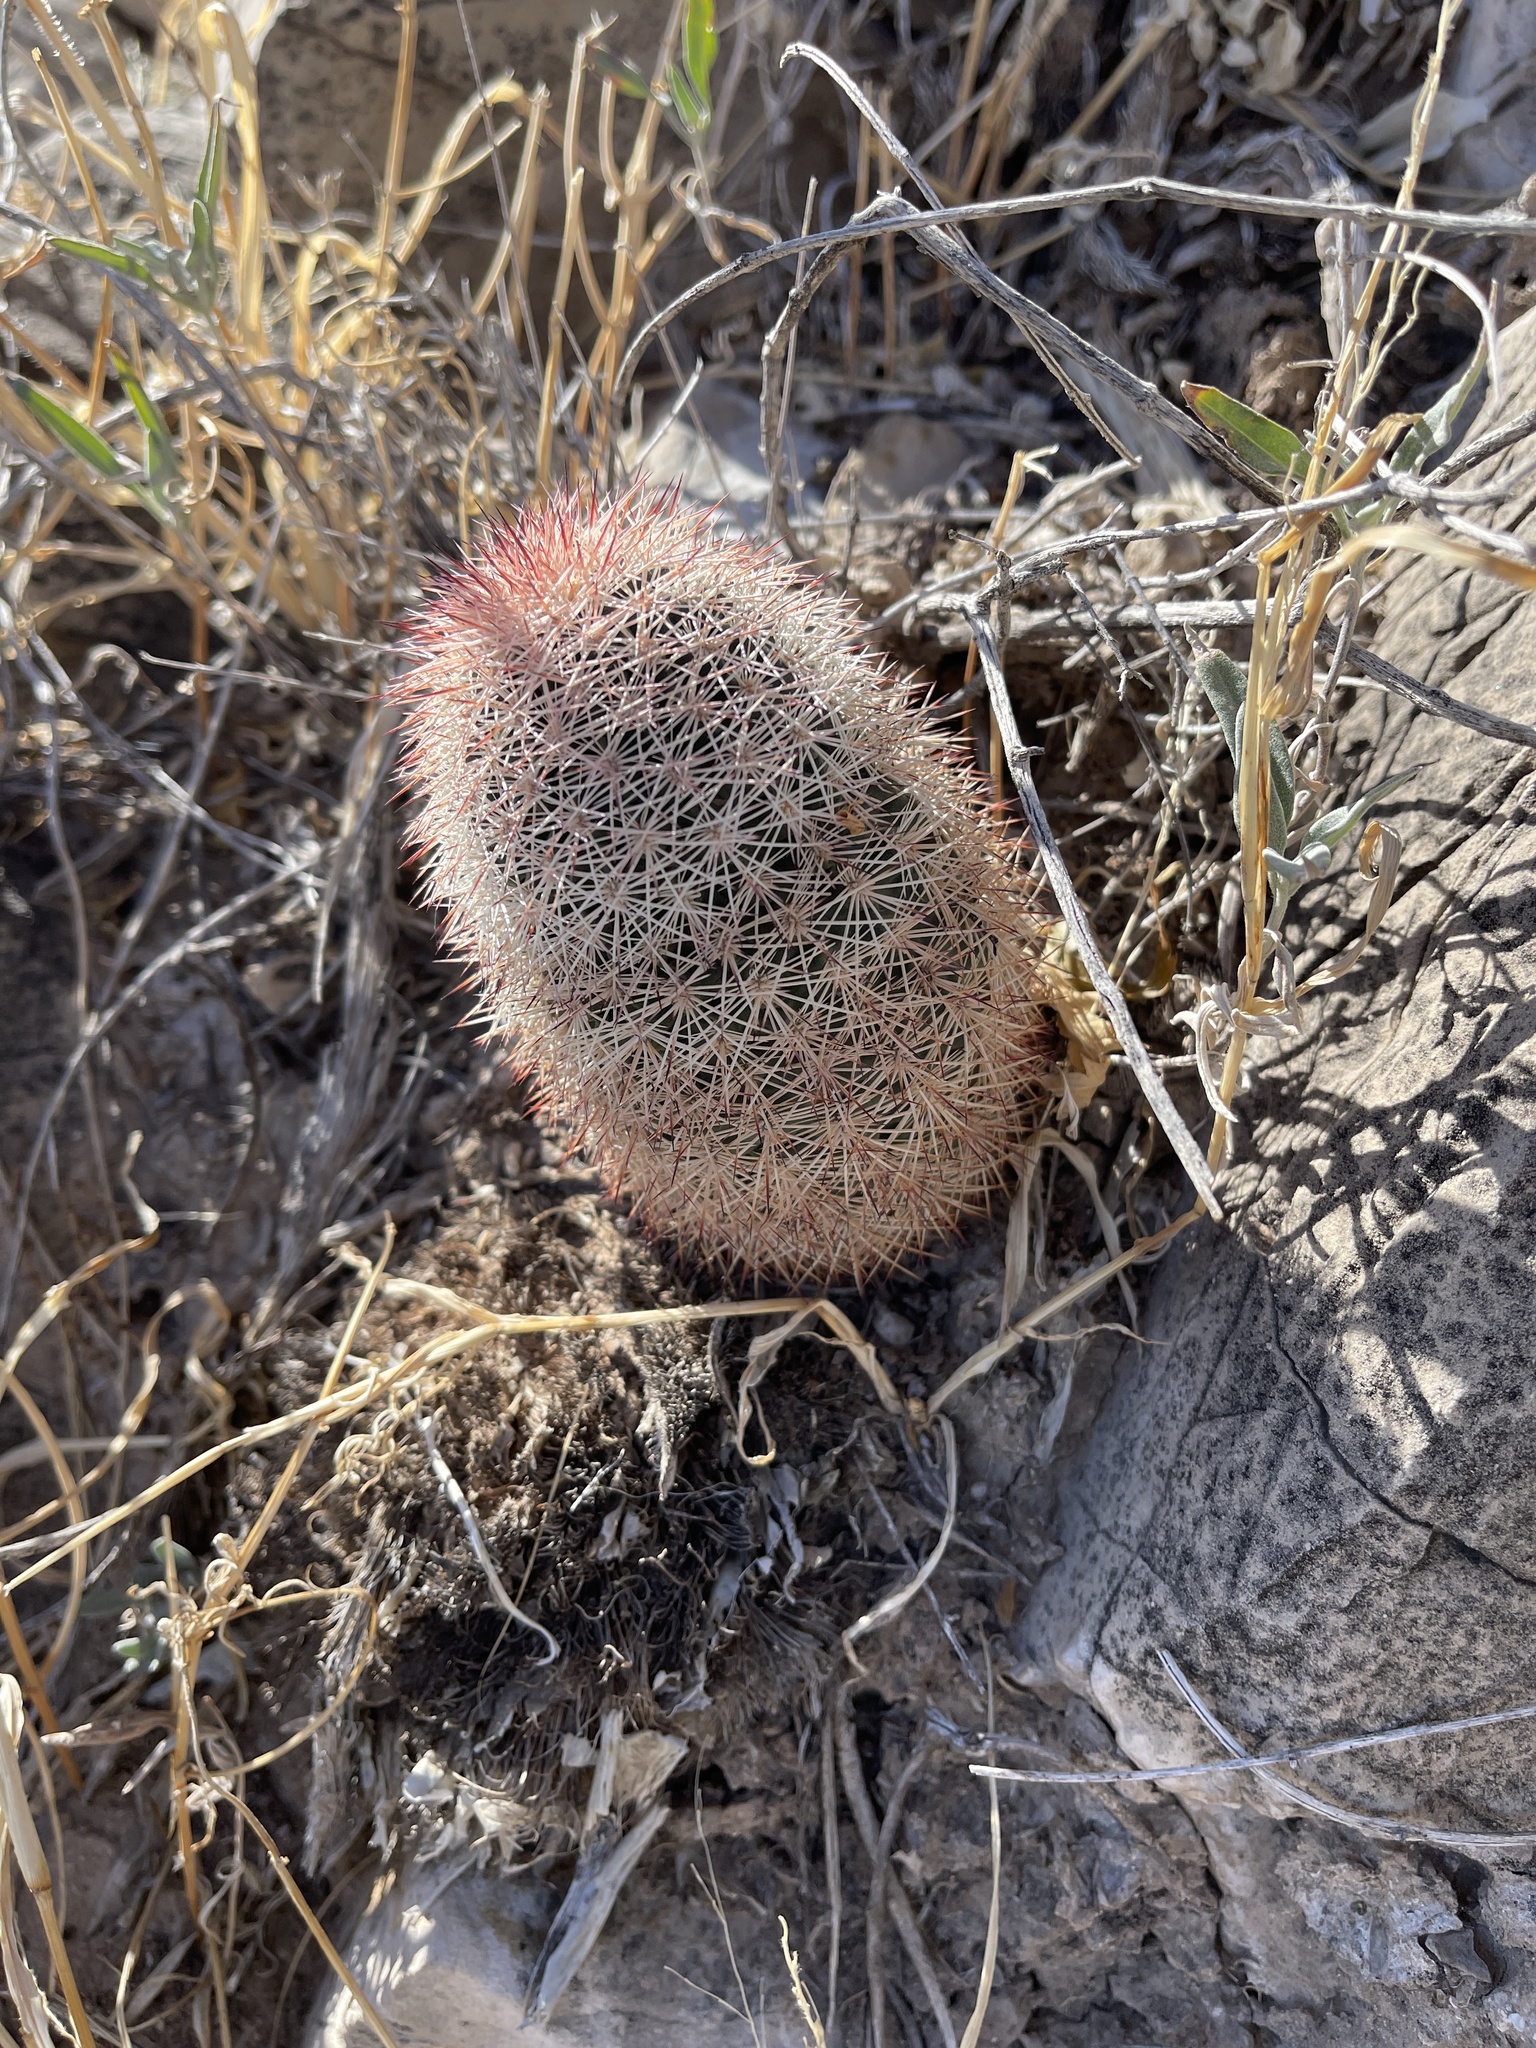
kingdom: Plantae
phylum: Tracheophyta
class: Magnoliopsida
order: Caryophyllales
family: Cactaceae
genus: Echinocereus
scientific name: Echinocereus dasyacanthus
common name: Spiny hedgehog cactus
